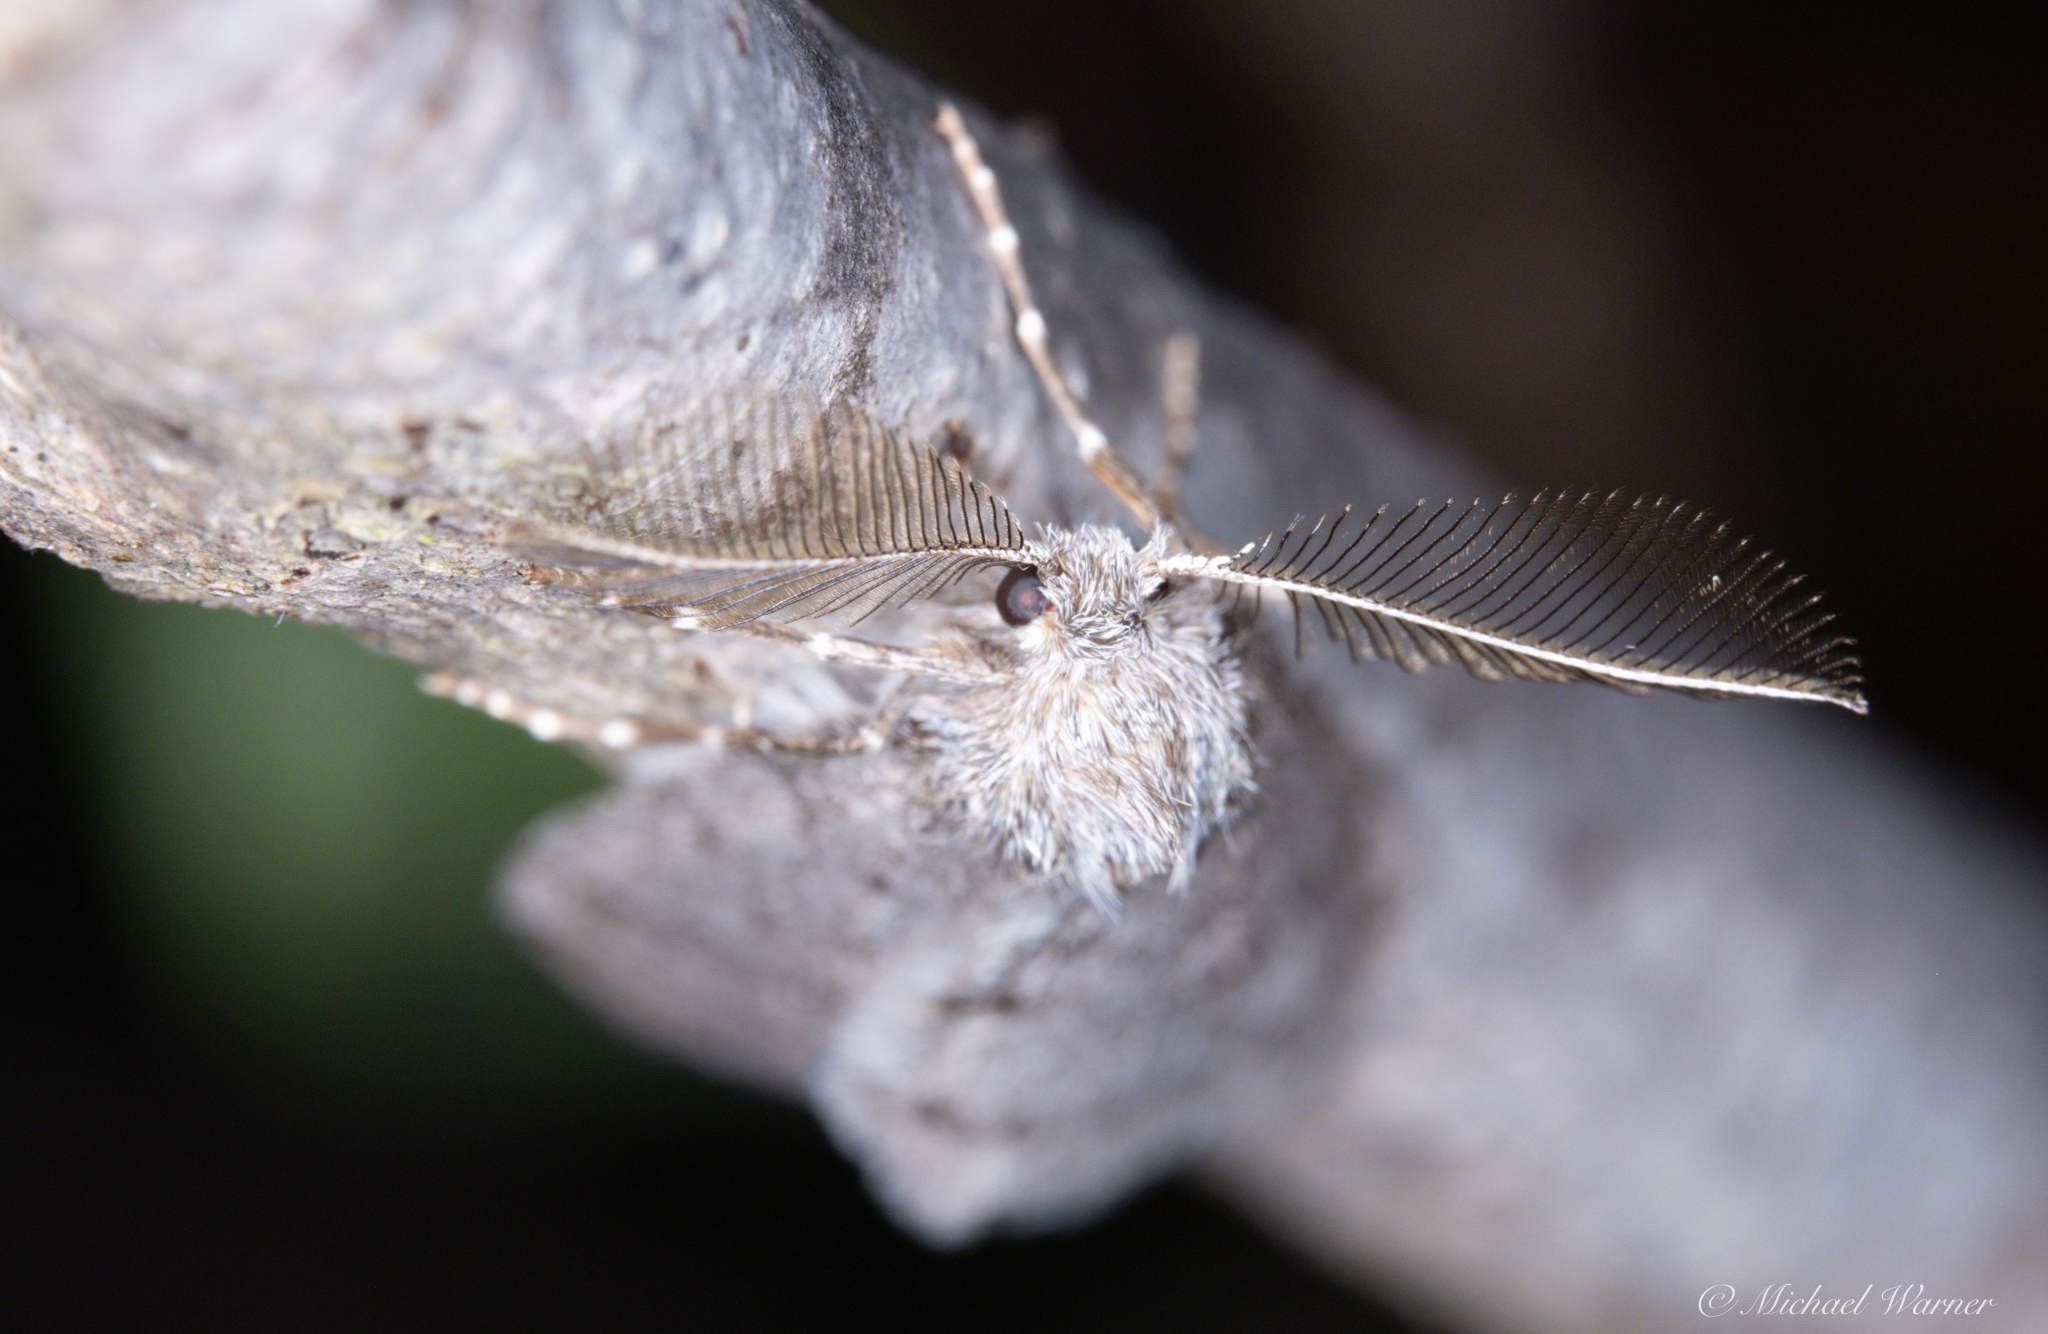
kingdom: Animalia
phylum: Arthropoda
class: Insecta
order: Lepidoptera
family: Geometridae
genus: Phigalia
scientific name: Phigalia plumogeraria
